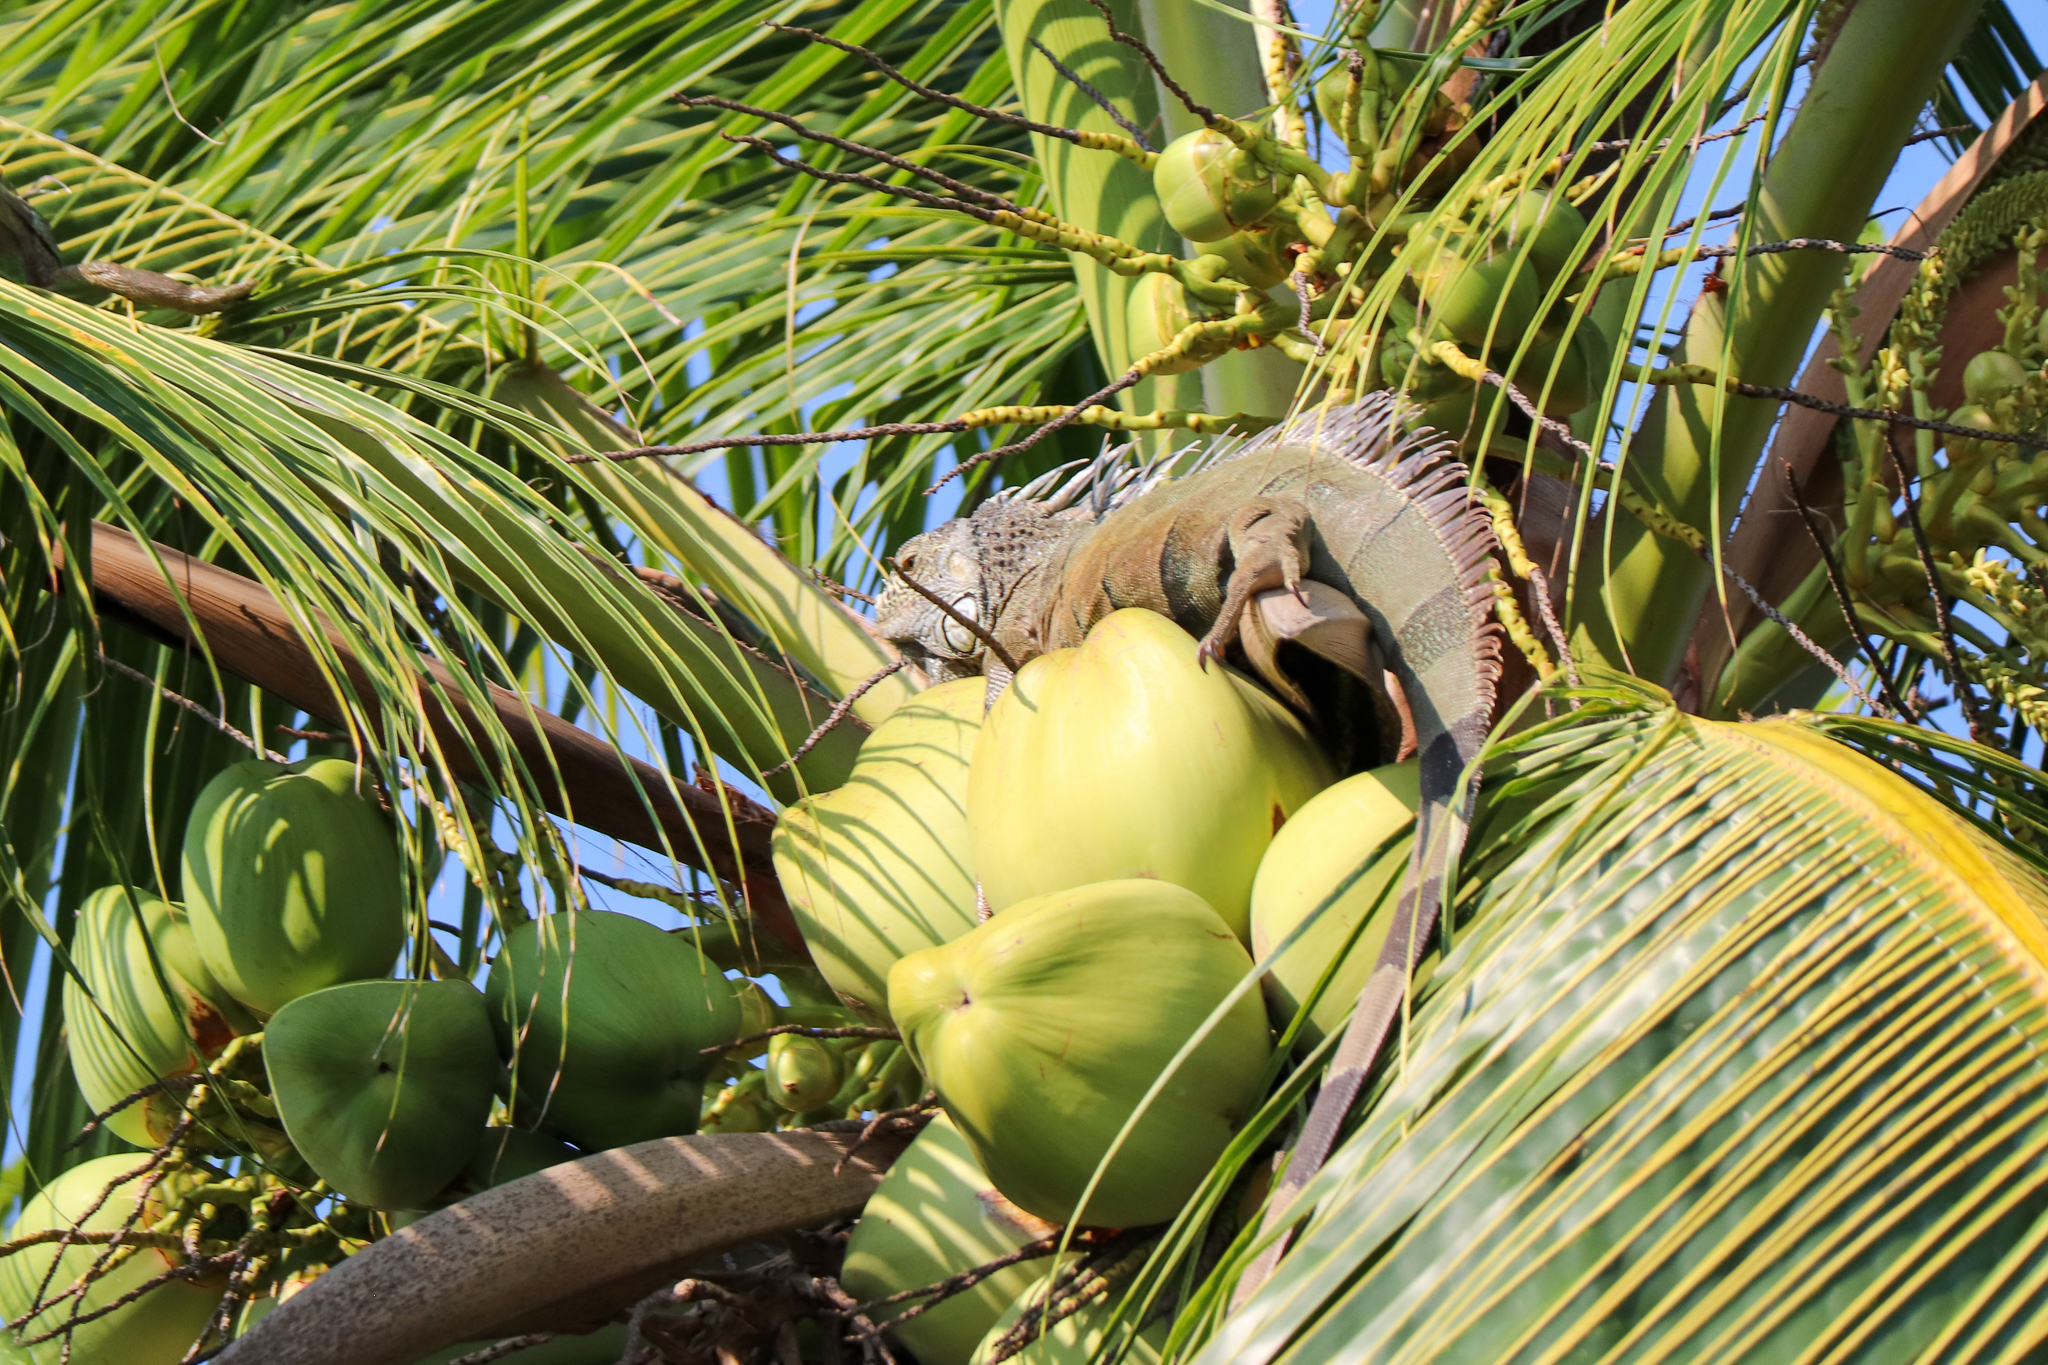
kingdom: Animalia
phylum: Chordata
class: Squamata
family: Iguanidae
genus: Iguana
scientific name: Iguana iguana
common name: Green iguana
